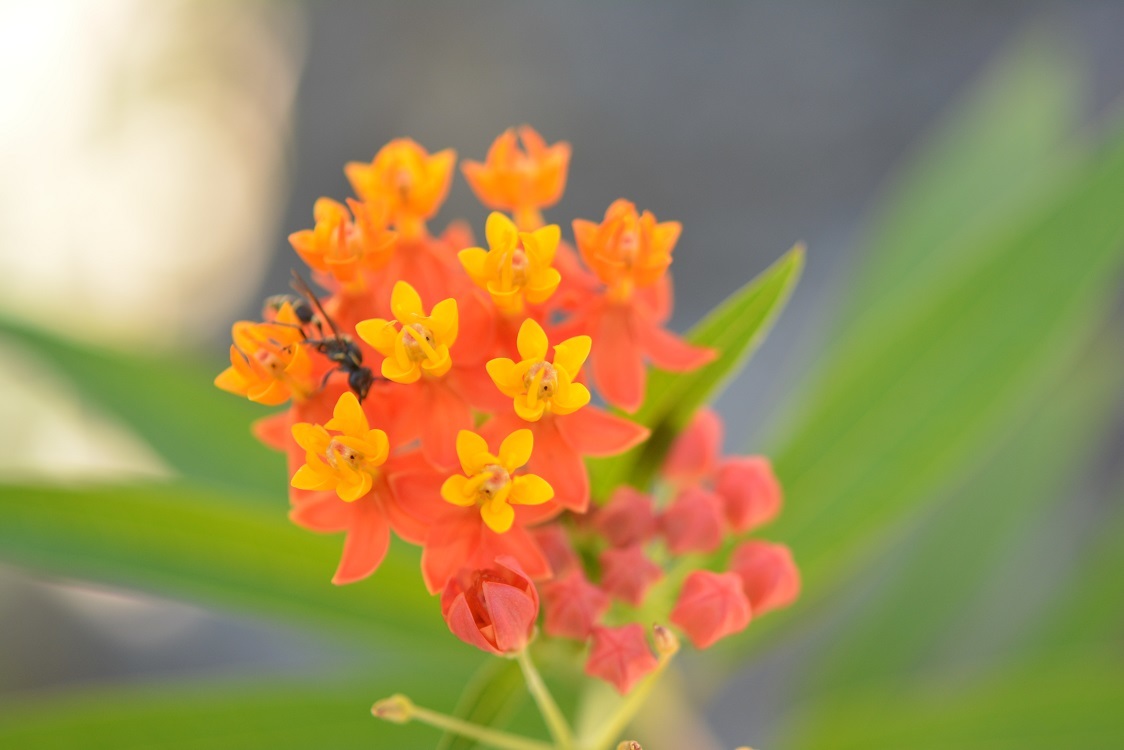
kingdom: Plantae
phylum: Tracheophyta
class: Magnoliopsida
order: Gentianales
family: Apocynaceae
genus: Asclepias
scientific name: Asclepias curassavica
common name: Bloodflower
